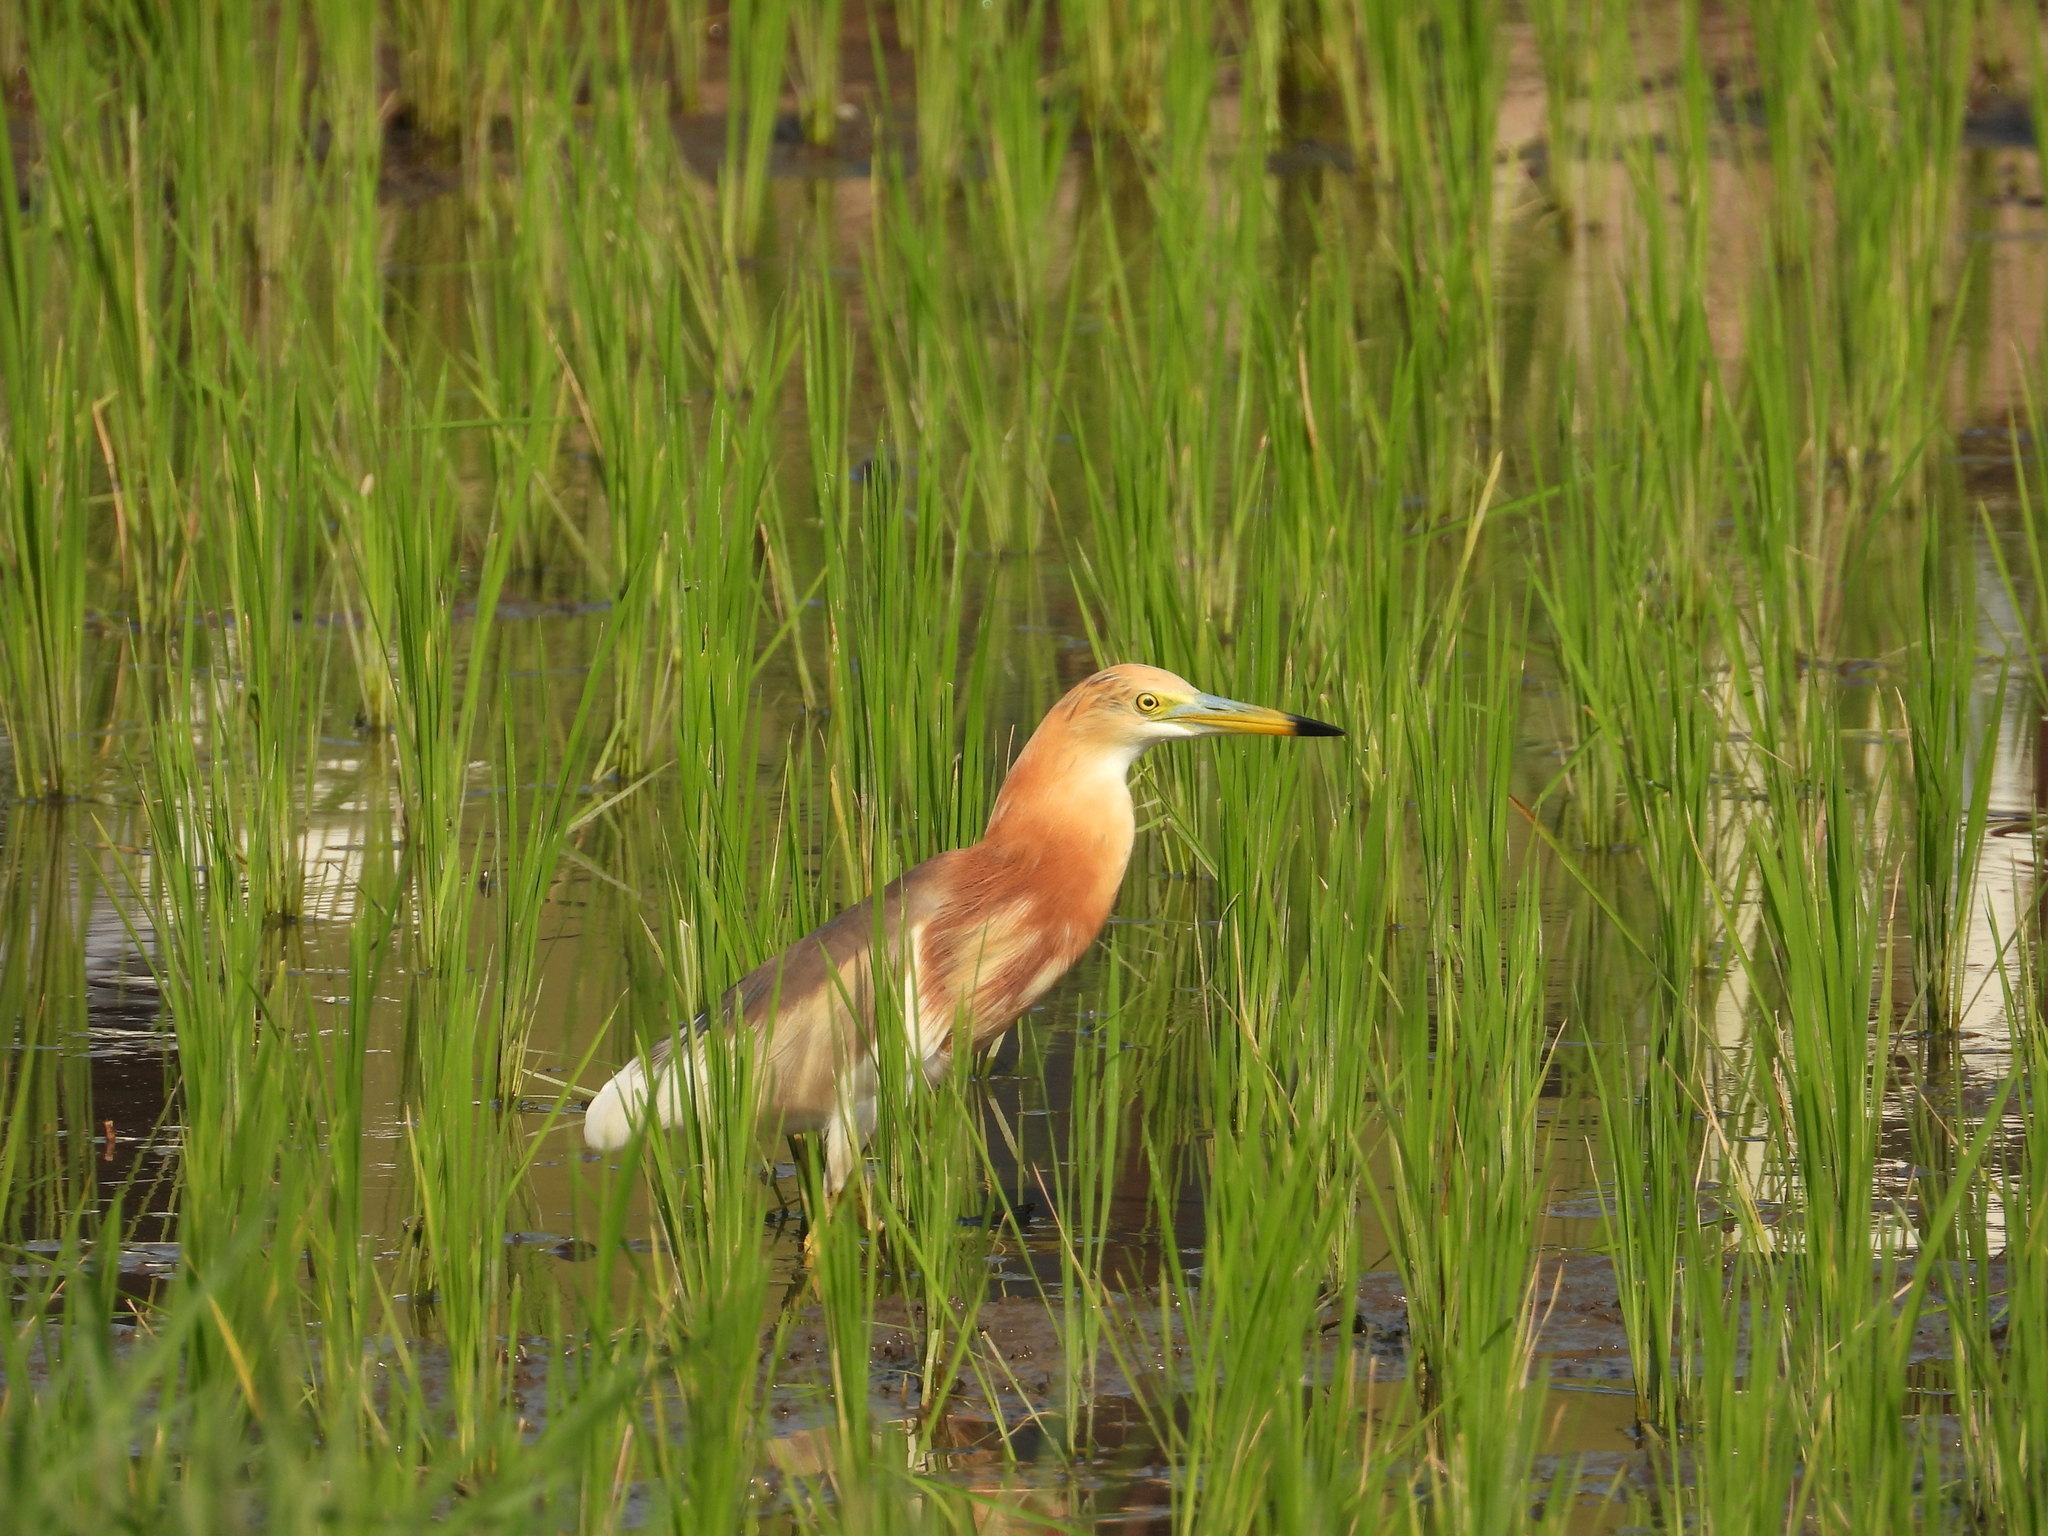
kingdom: Animalia
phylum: Chordata
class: Aves
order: Pelecaniformes
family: Ardeidae
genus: Ardeola
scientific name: Ardeola speciosa
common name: Javan pond heron
